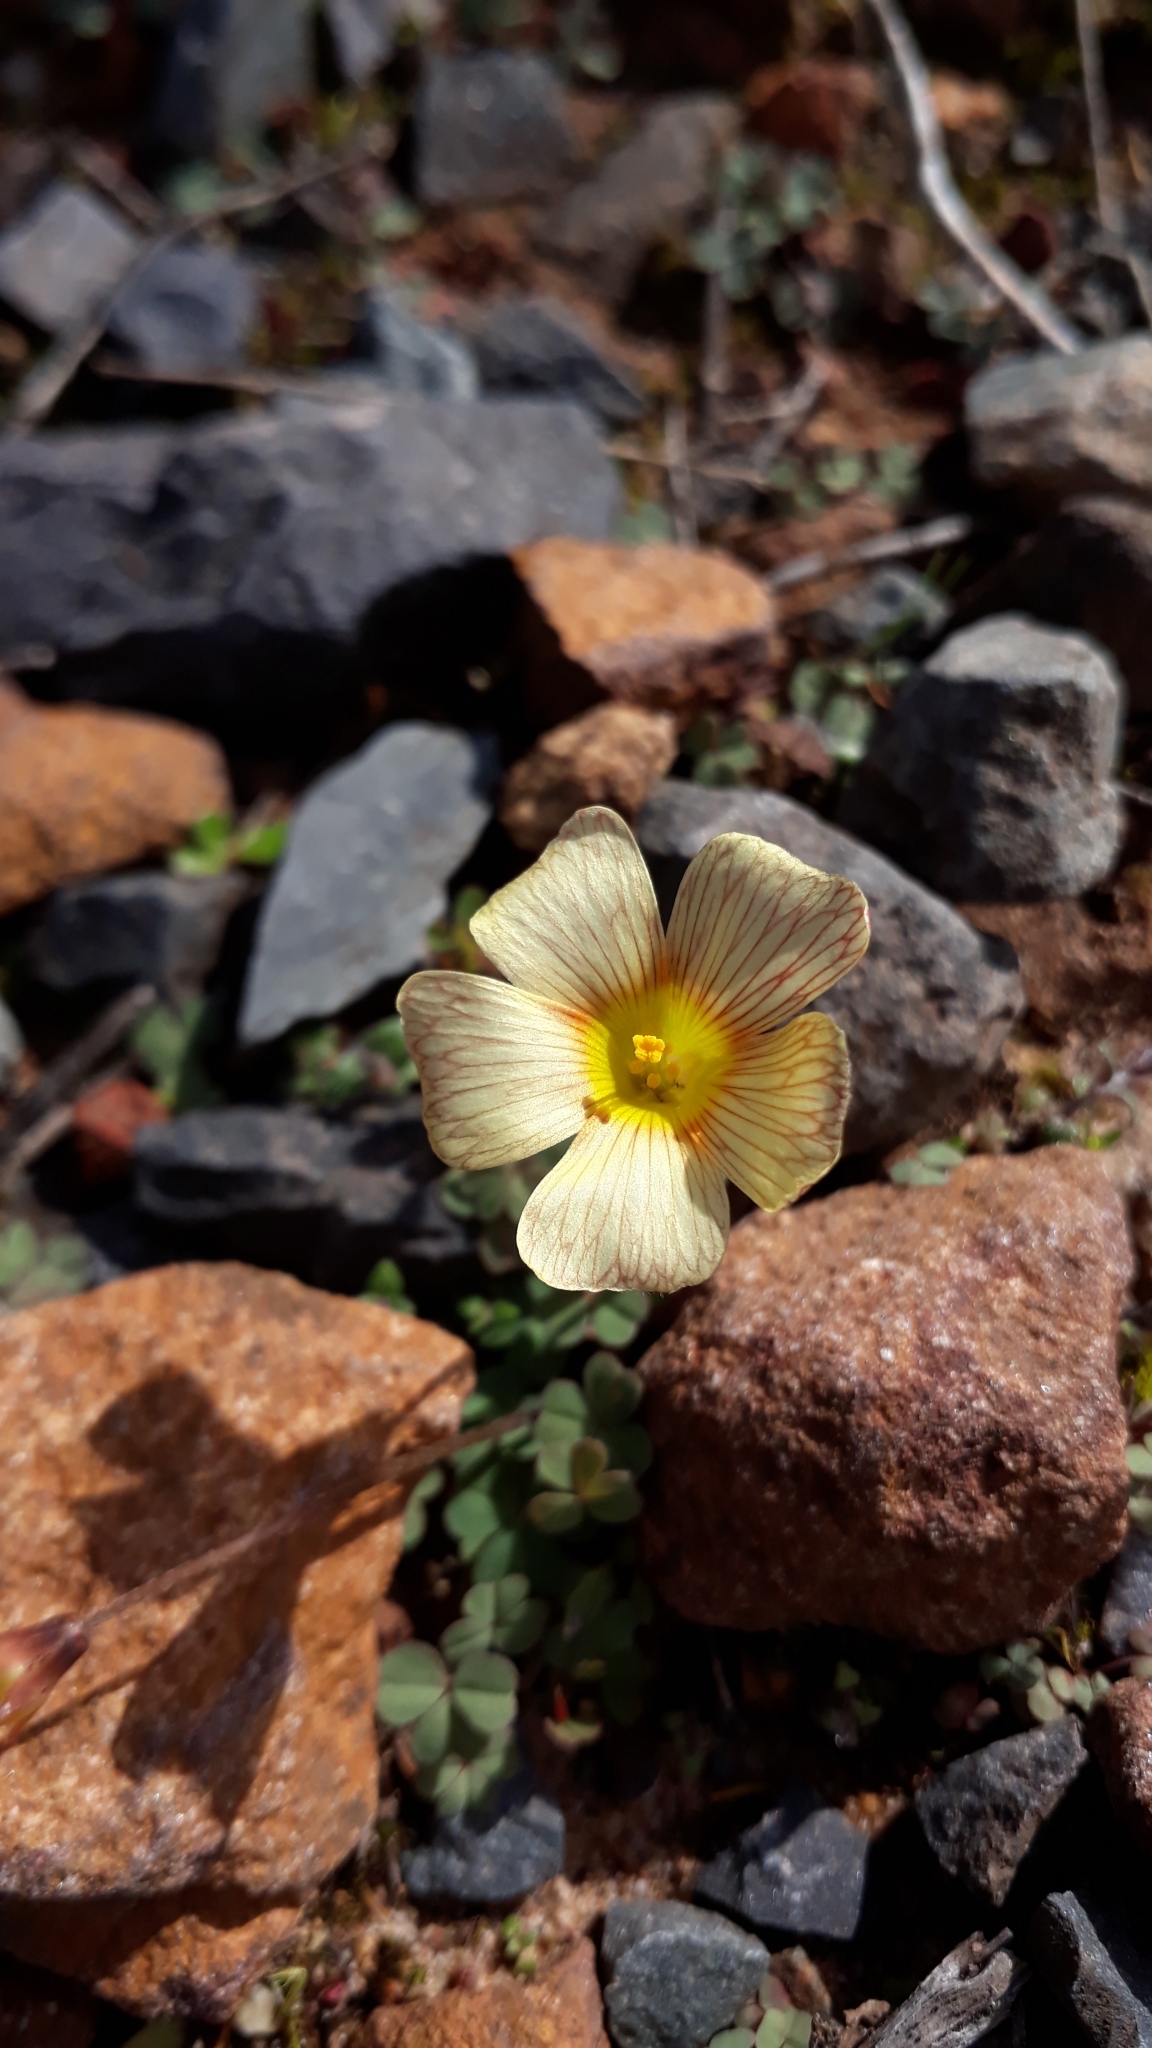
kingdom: Plantae
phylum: Tracheophyta
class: Magnoliopsida
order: Oxalidales
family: Oxalidaceae
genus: Oxalis
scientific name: Oxalis obtusa
